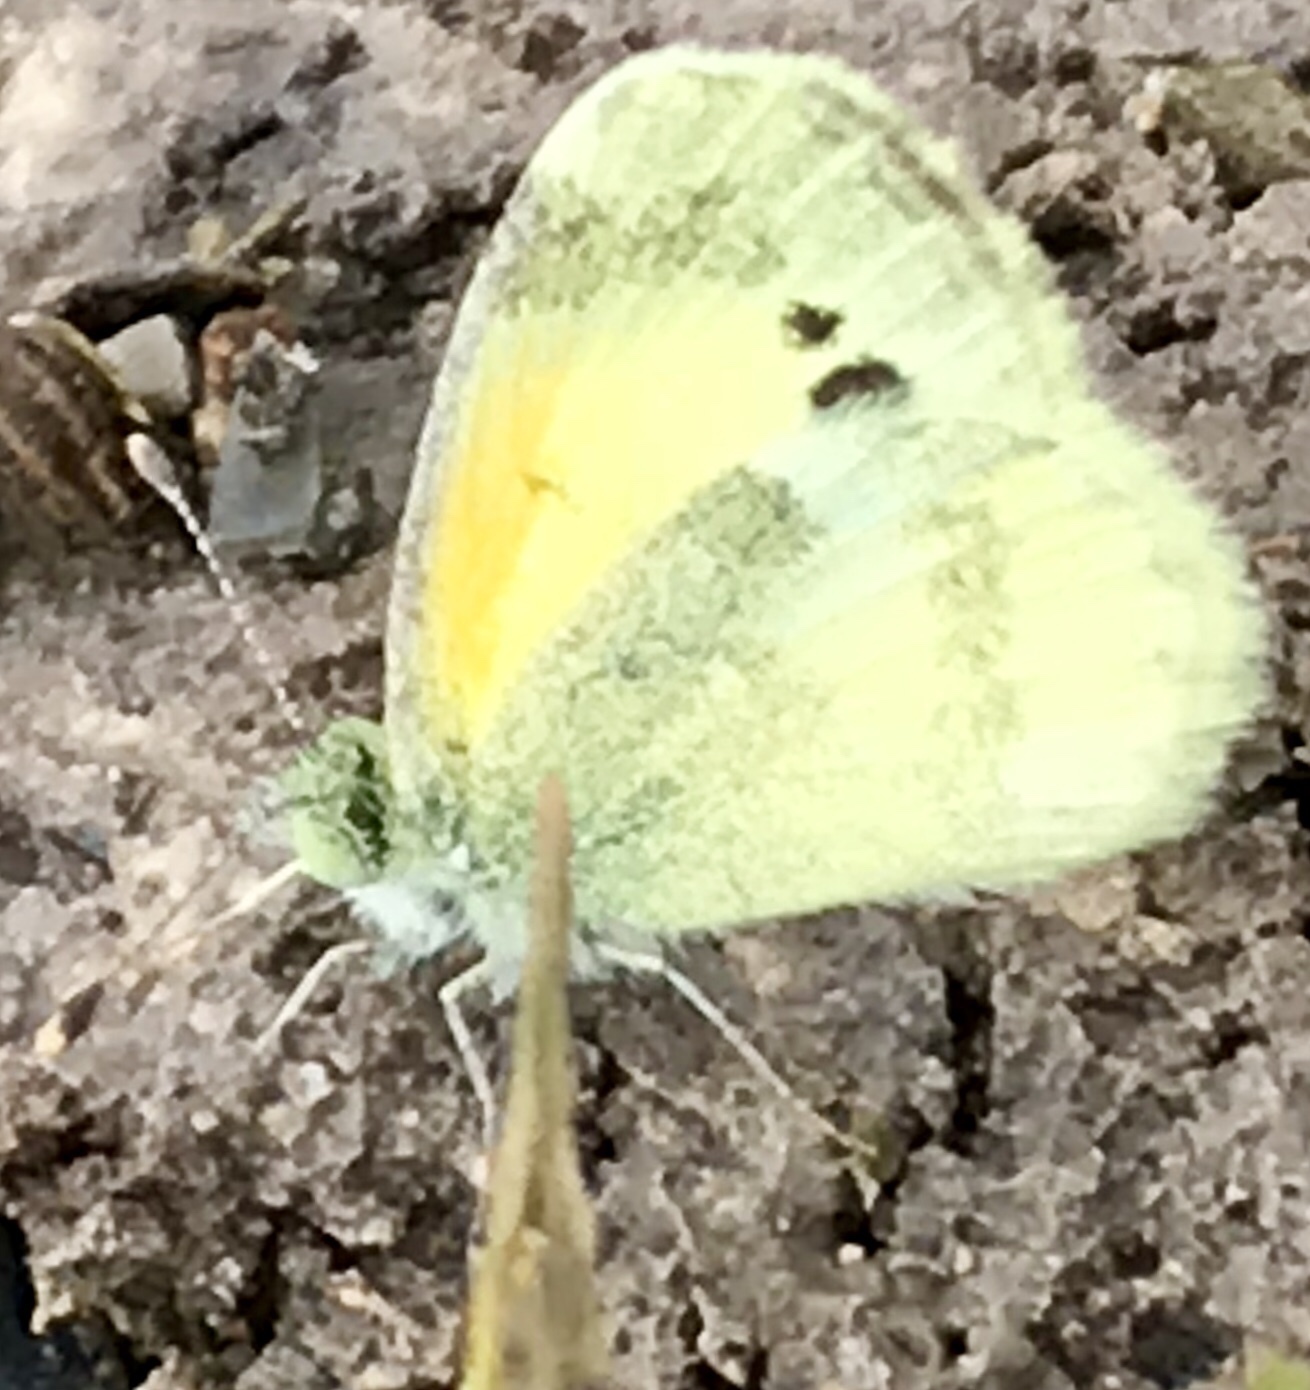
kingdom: Animalia
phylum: Arthropoda
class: Insecta
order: Lepidoptera
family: Pieridae
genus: Nathalis
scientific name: Nathalis iole
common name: Dainty sulphur
